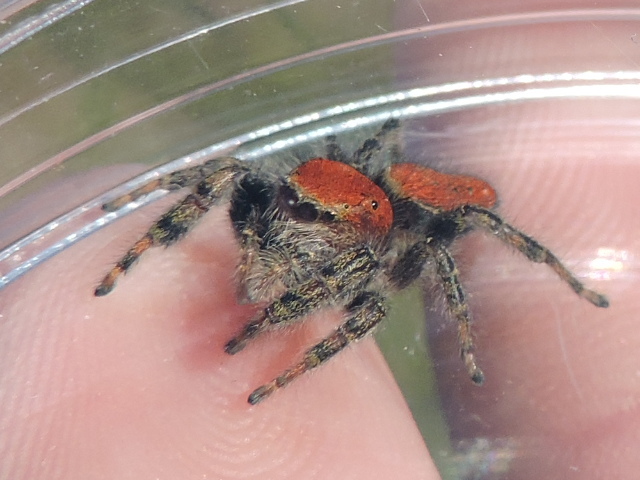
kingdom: Animalia
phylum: Arthropoda
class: Arachnida
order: Araneae
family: Salticidae
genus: Phidippus
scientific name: Phidippus cardinalis
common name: Cardinal jumper
